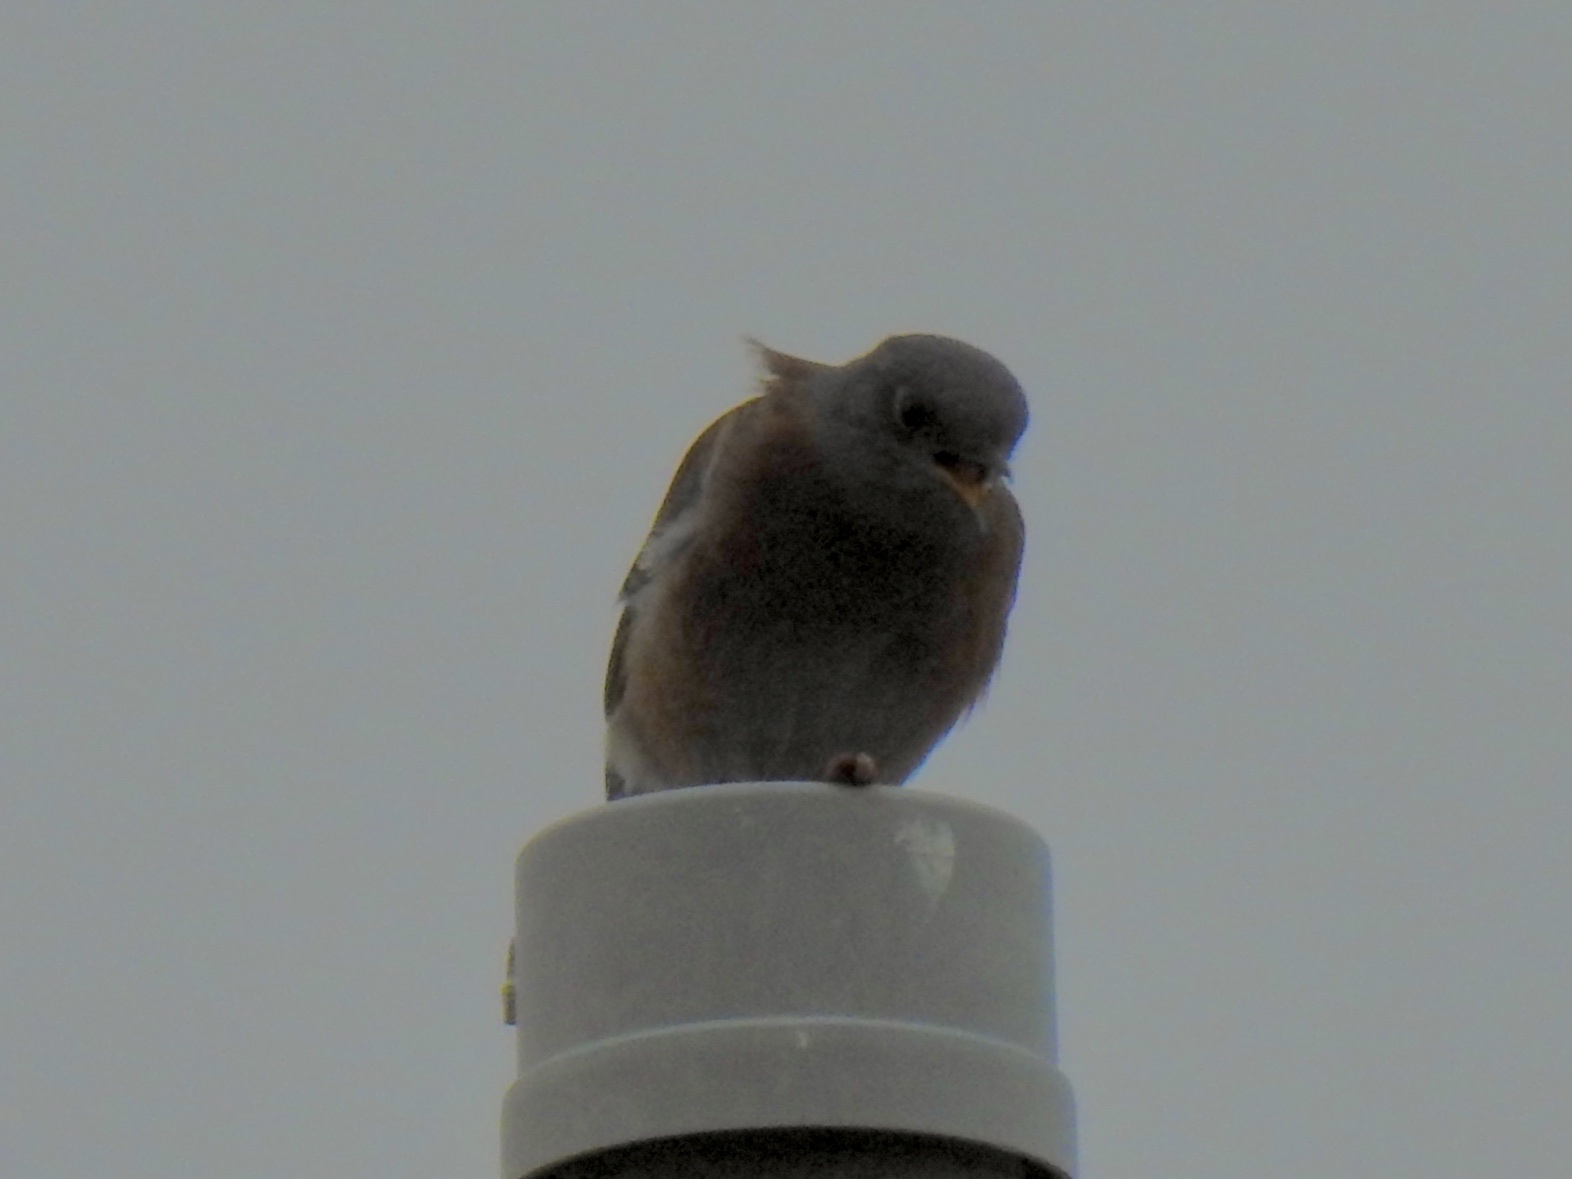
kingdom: Animalia
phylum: Chordata
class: Aves
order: Passeriformes
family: Turdidae
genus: Sialia
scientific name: Sialia mexicana
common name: Western bluebird
